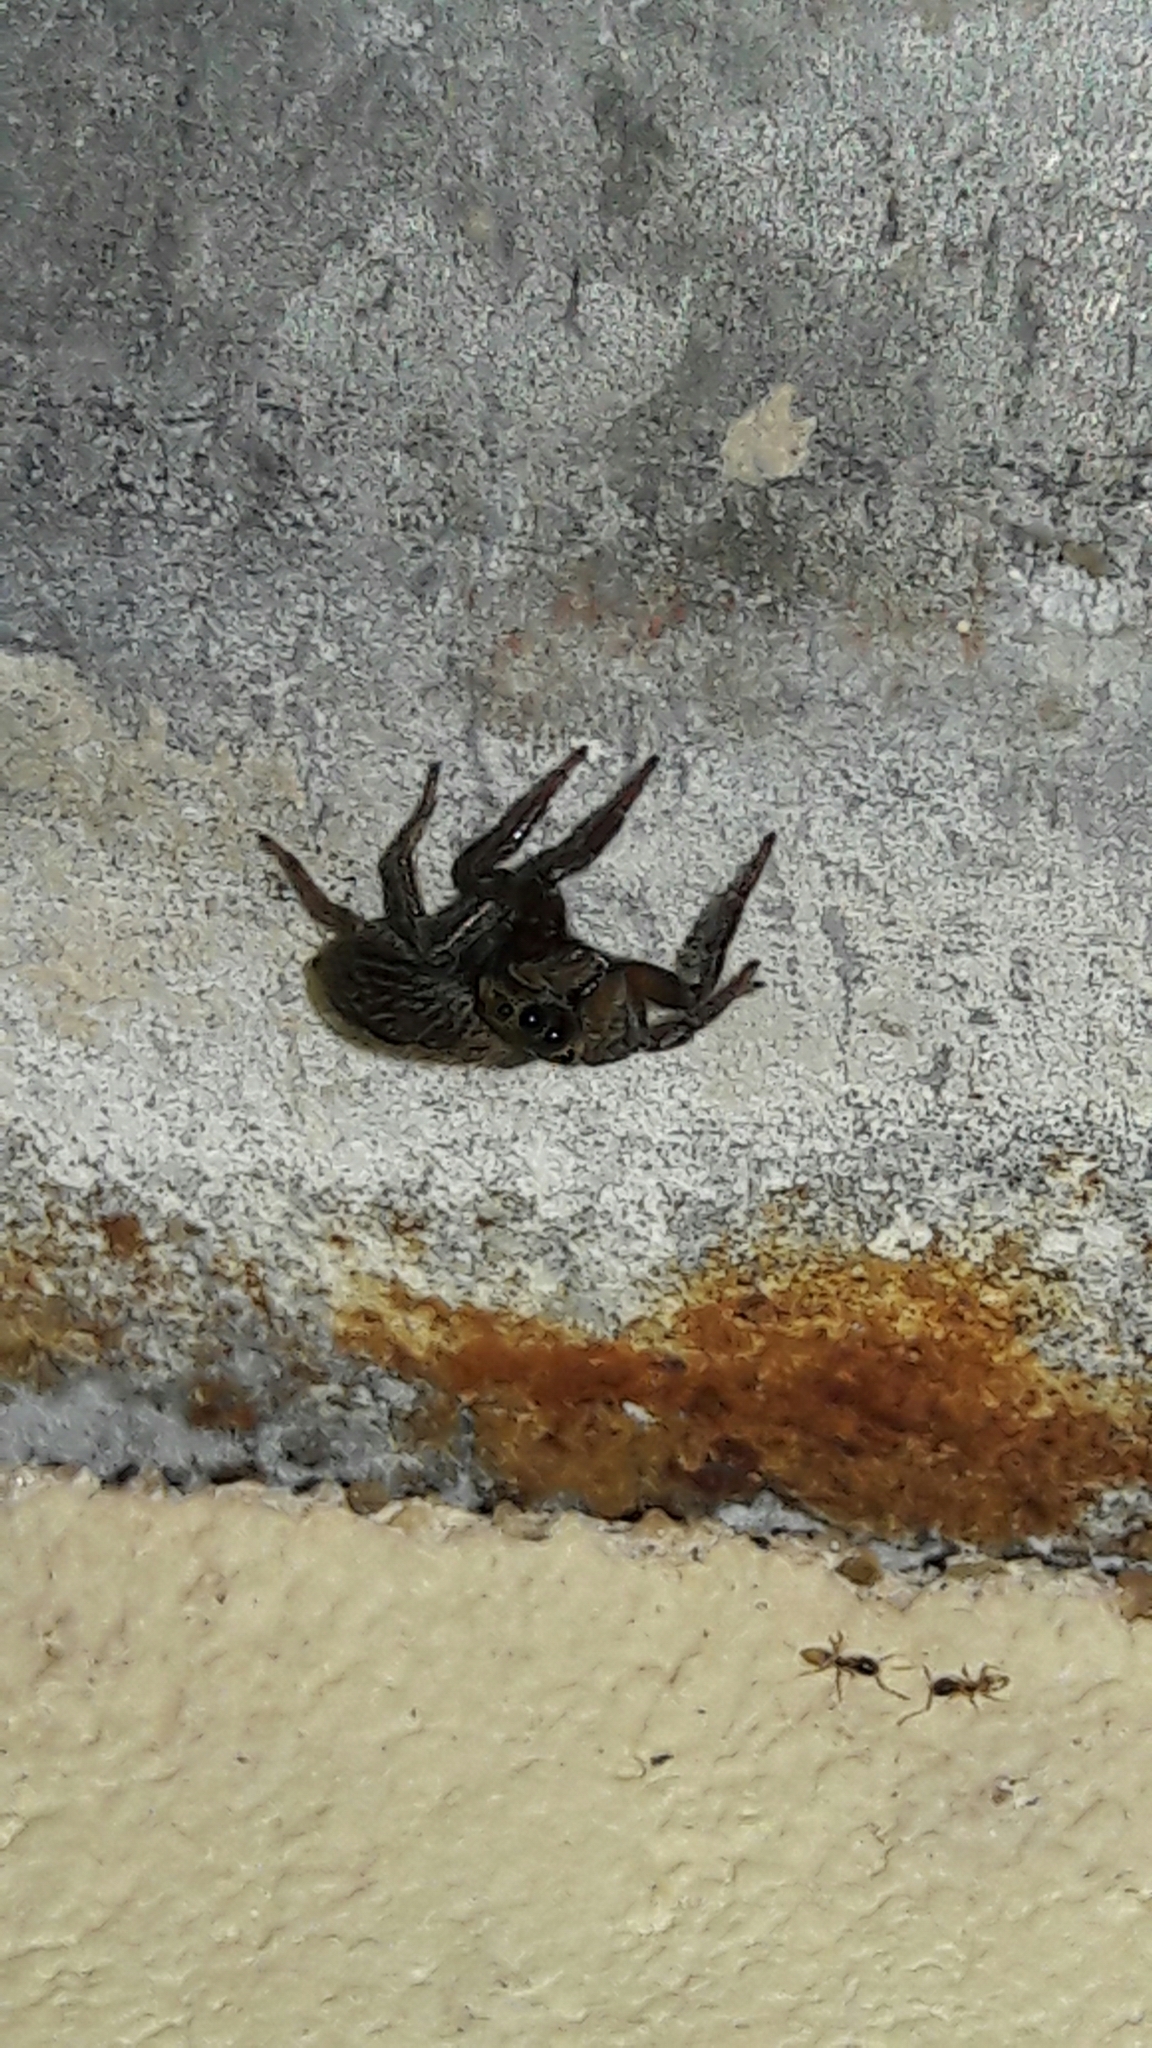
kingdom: Animalia
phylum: Arthropoda
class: Arachnida
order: Araneae
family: Salticidae
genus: Hasarius
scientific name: Hasarius adansoni
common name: Jumping spider
